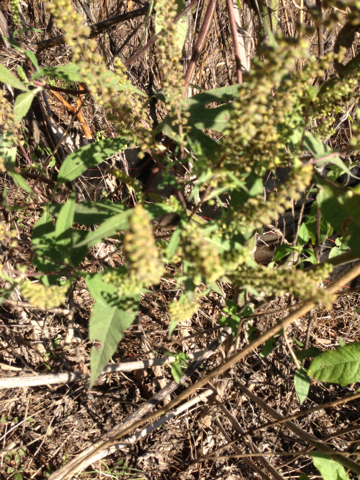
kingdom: Plantae
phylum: Tracheophyta
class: Magnoliopsida
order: Asterales
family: Asteraceae
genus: Ambrosia
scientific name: Ambrosia trifida
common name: Giant ragweed
